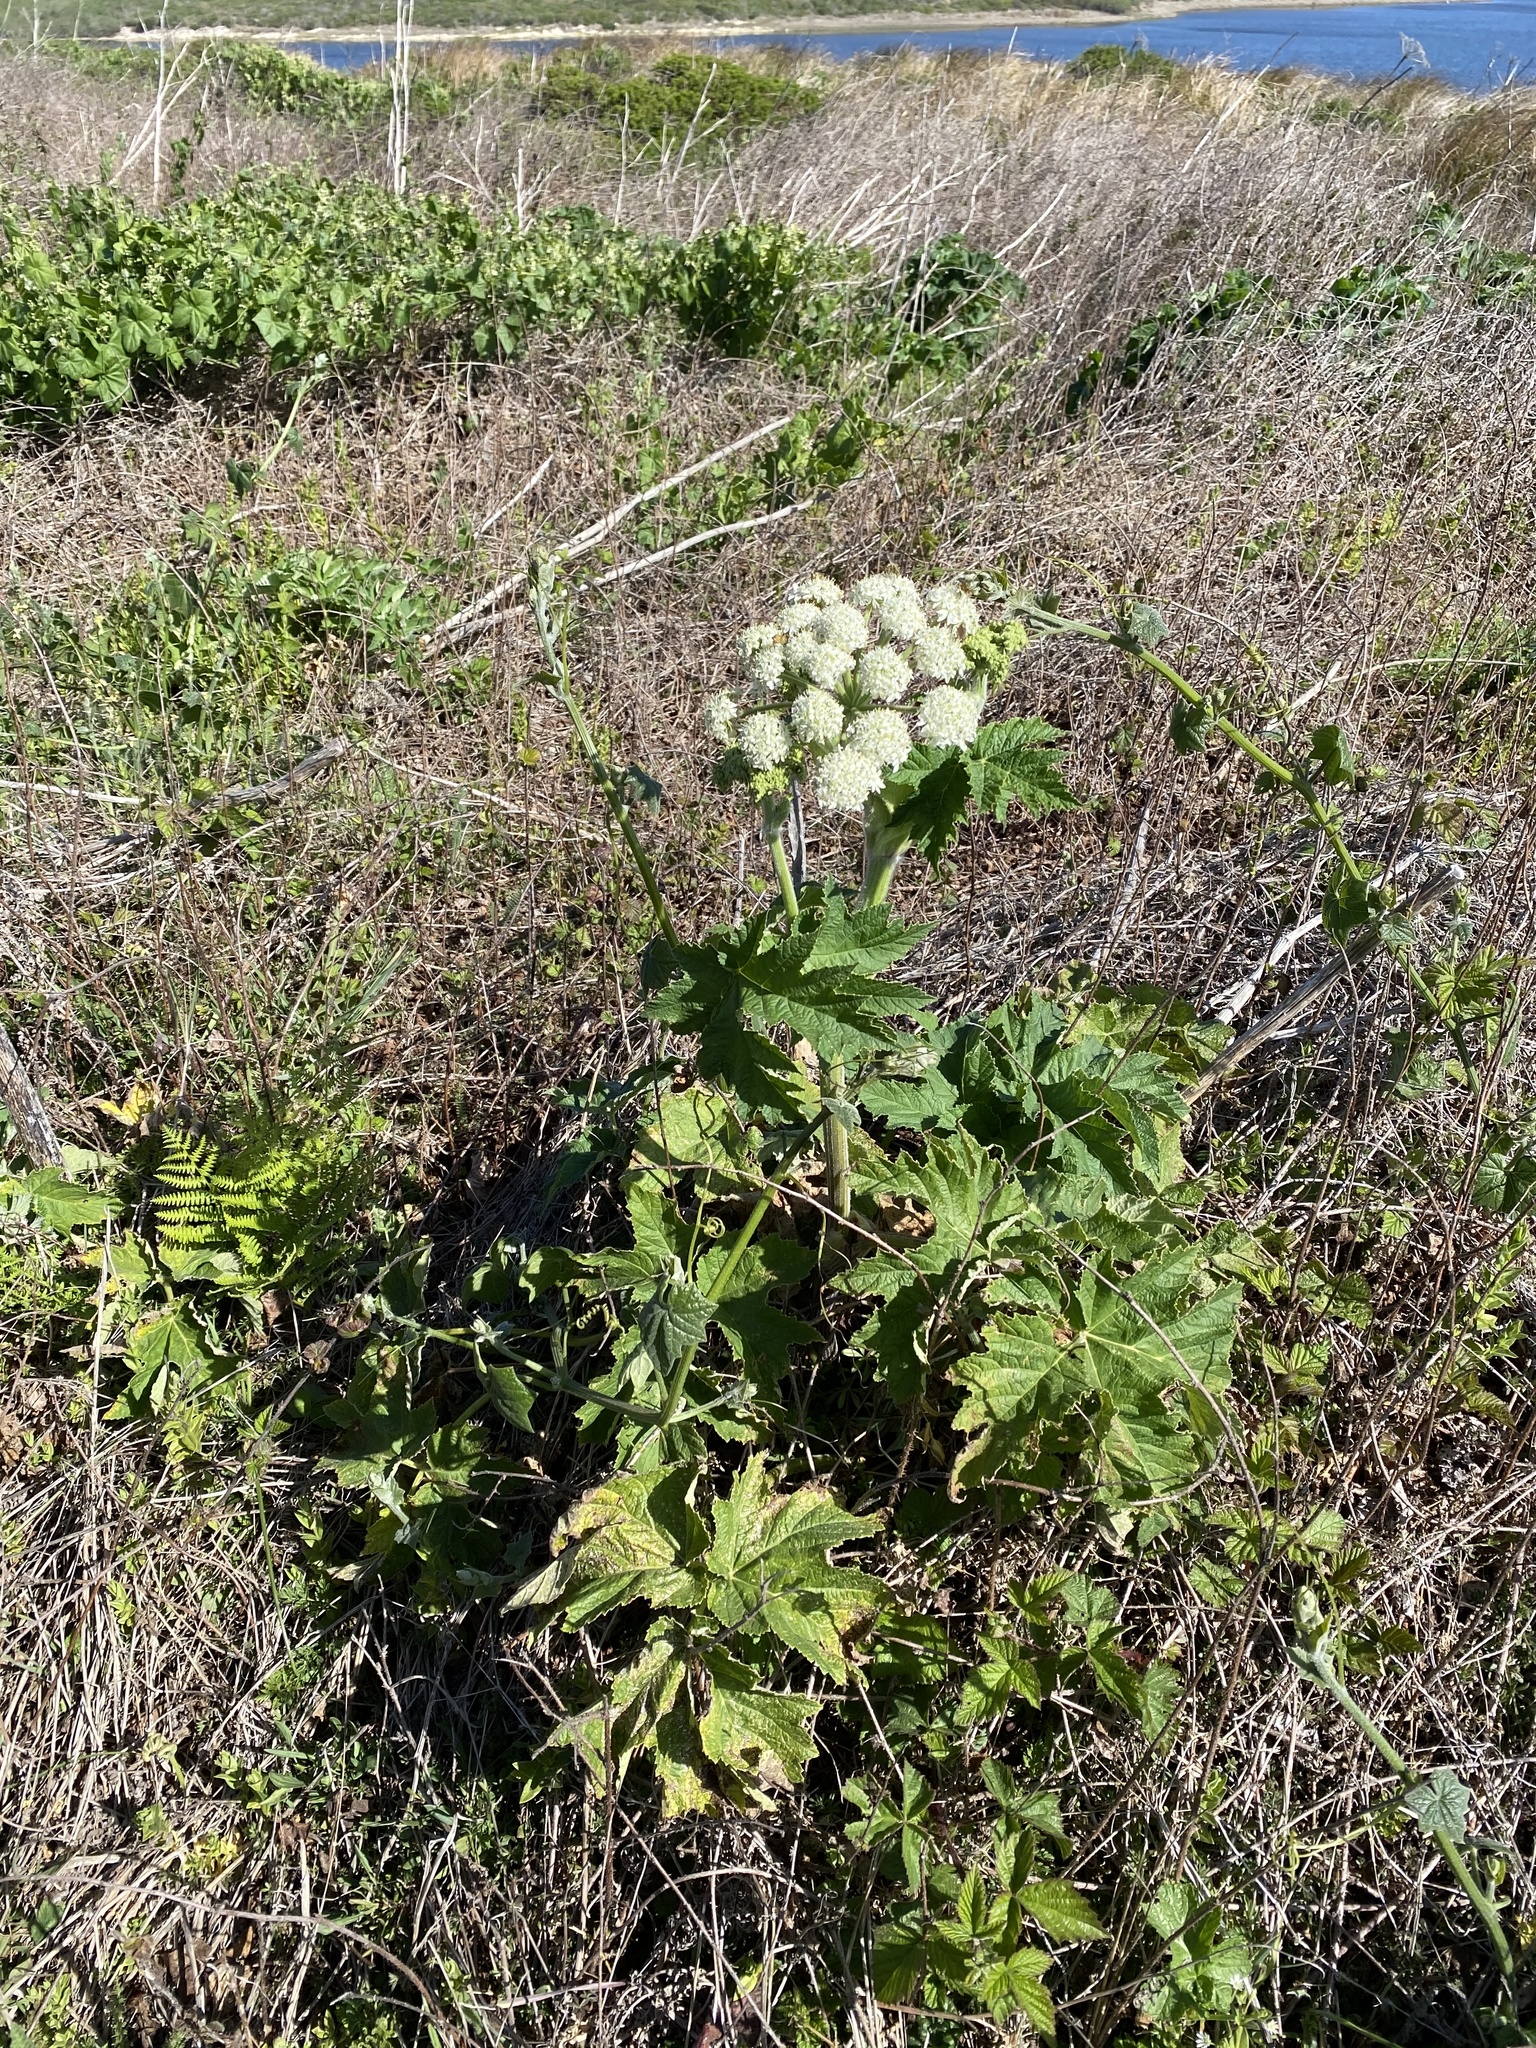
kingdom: Plantae
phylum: Tracheophyta
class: Magnoliopsida
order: Apiales
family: Apiaceae
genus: Heracleum
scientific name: Heracleum maximum
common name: American cow parsnip
